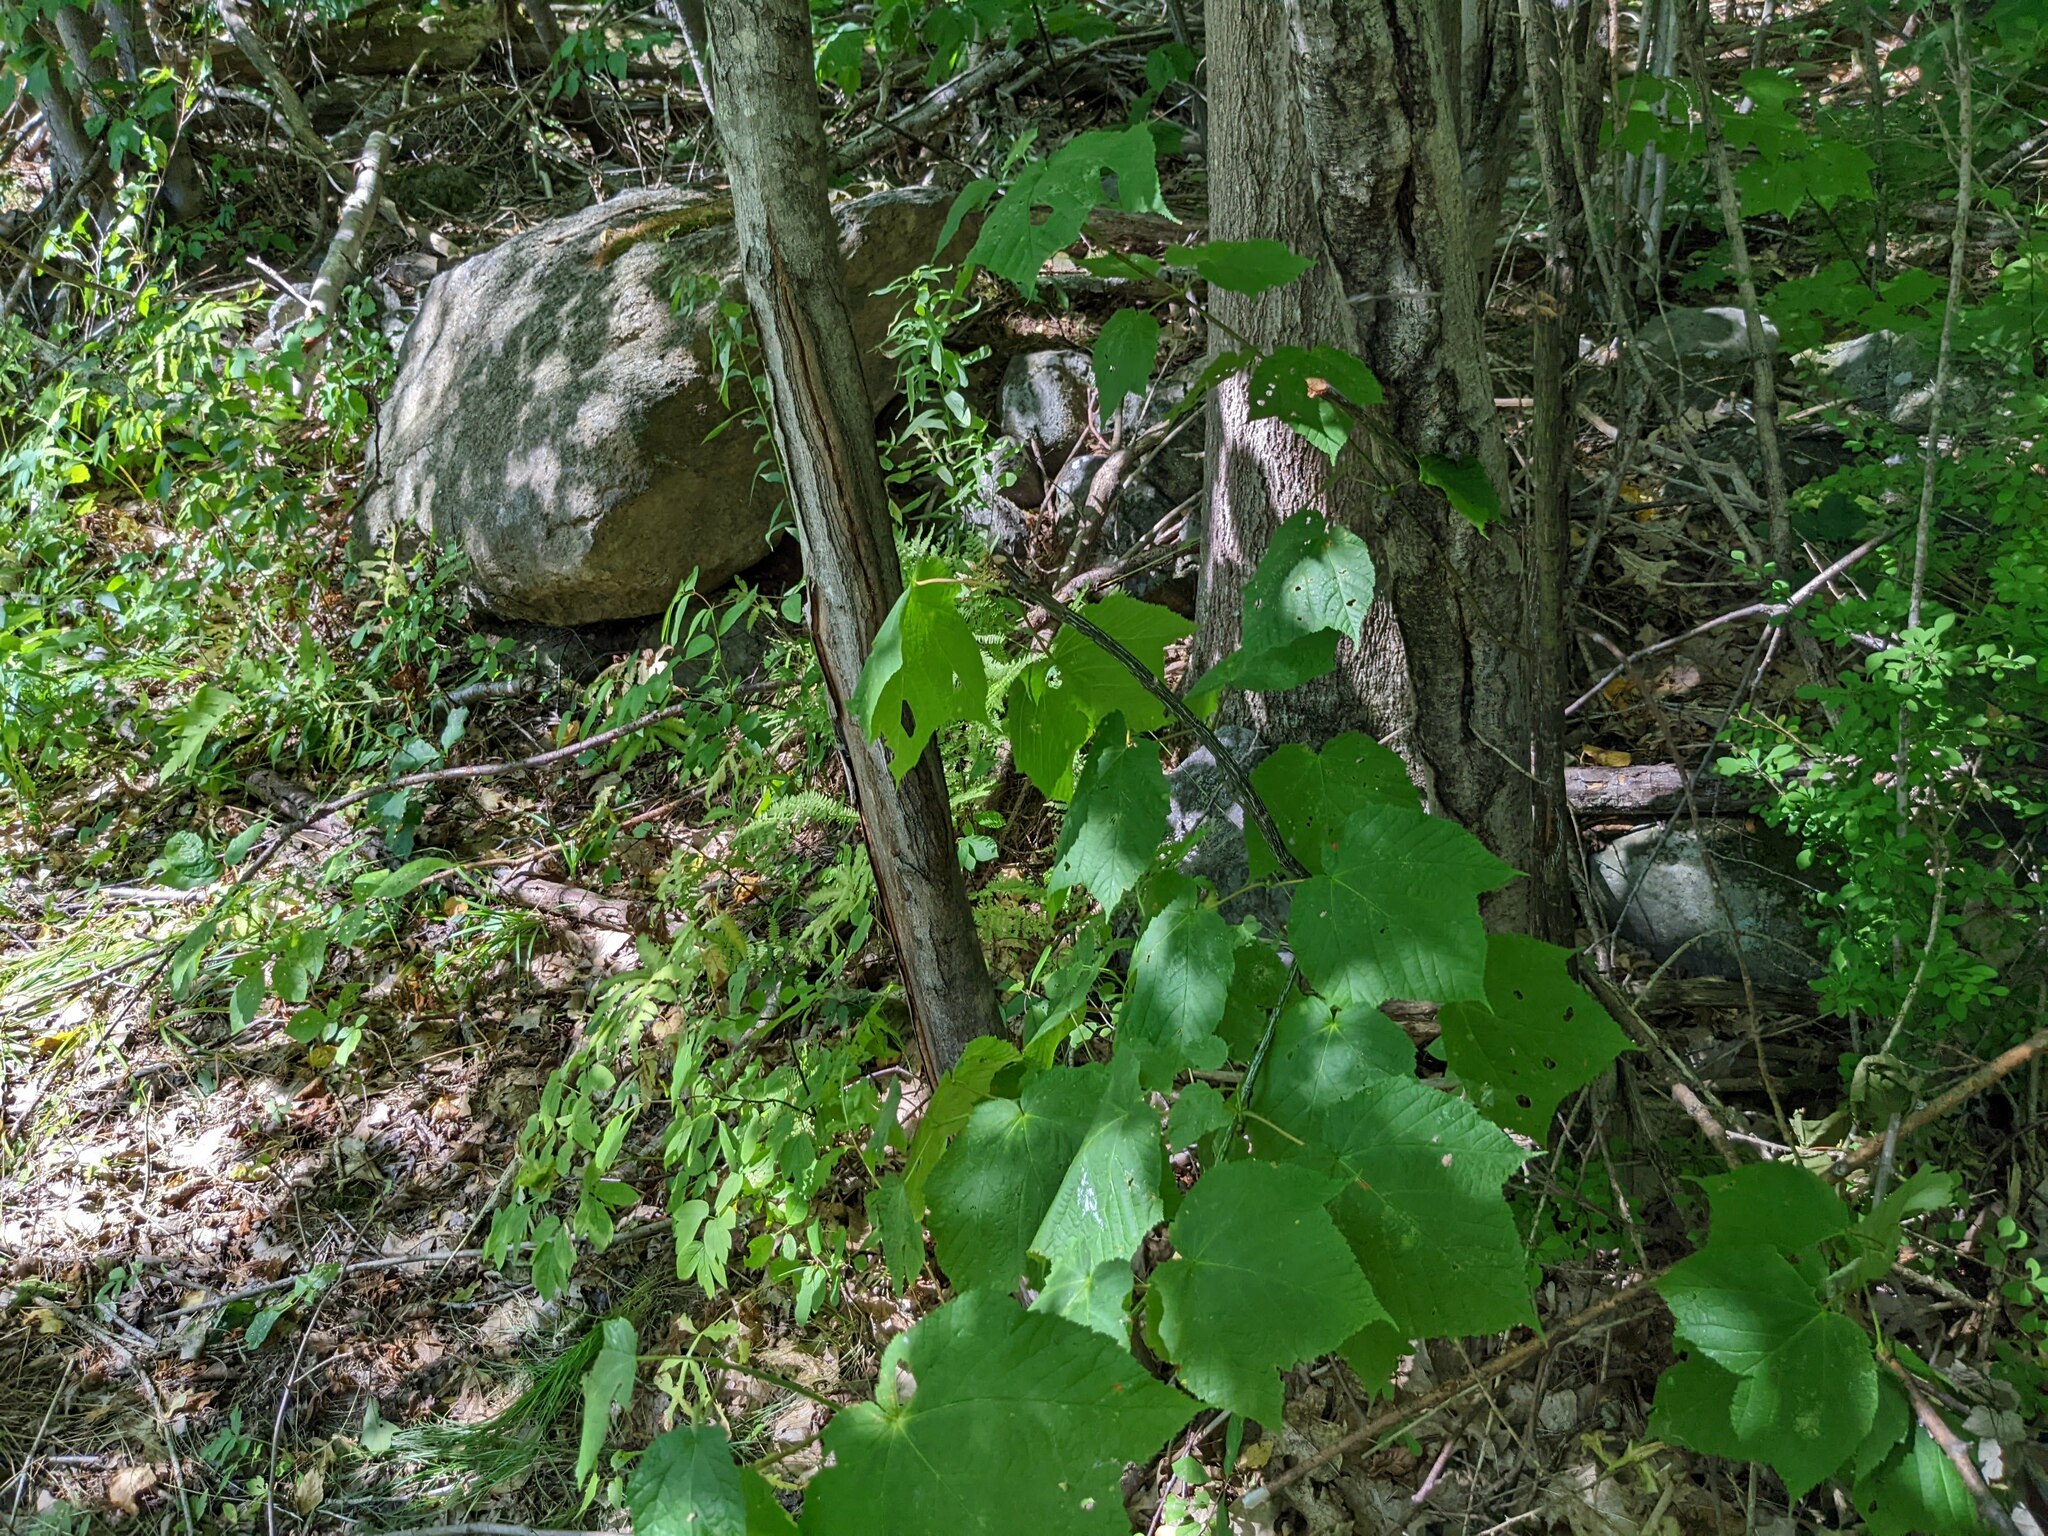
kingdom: Plantae
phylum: Tracheophyta
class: Magnoliopsida
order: Sapindales
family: Sapindaceae
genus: Acer
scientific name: Acer pensylvanicum
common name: Moosewood
